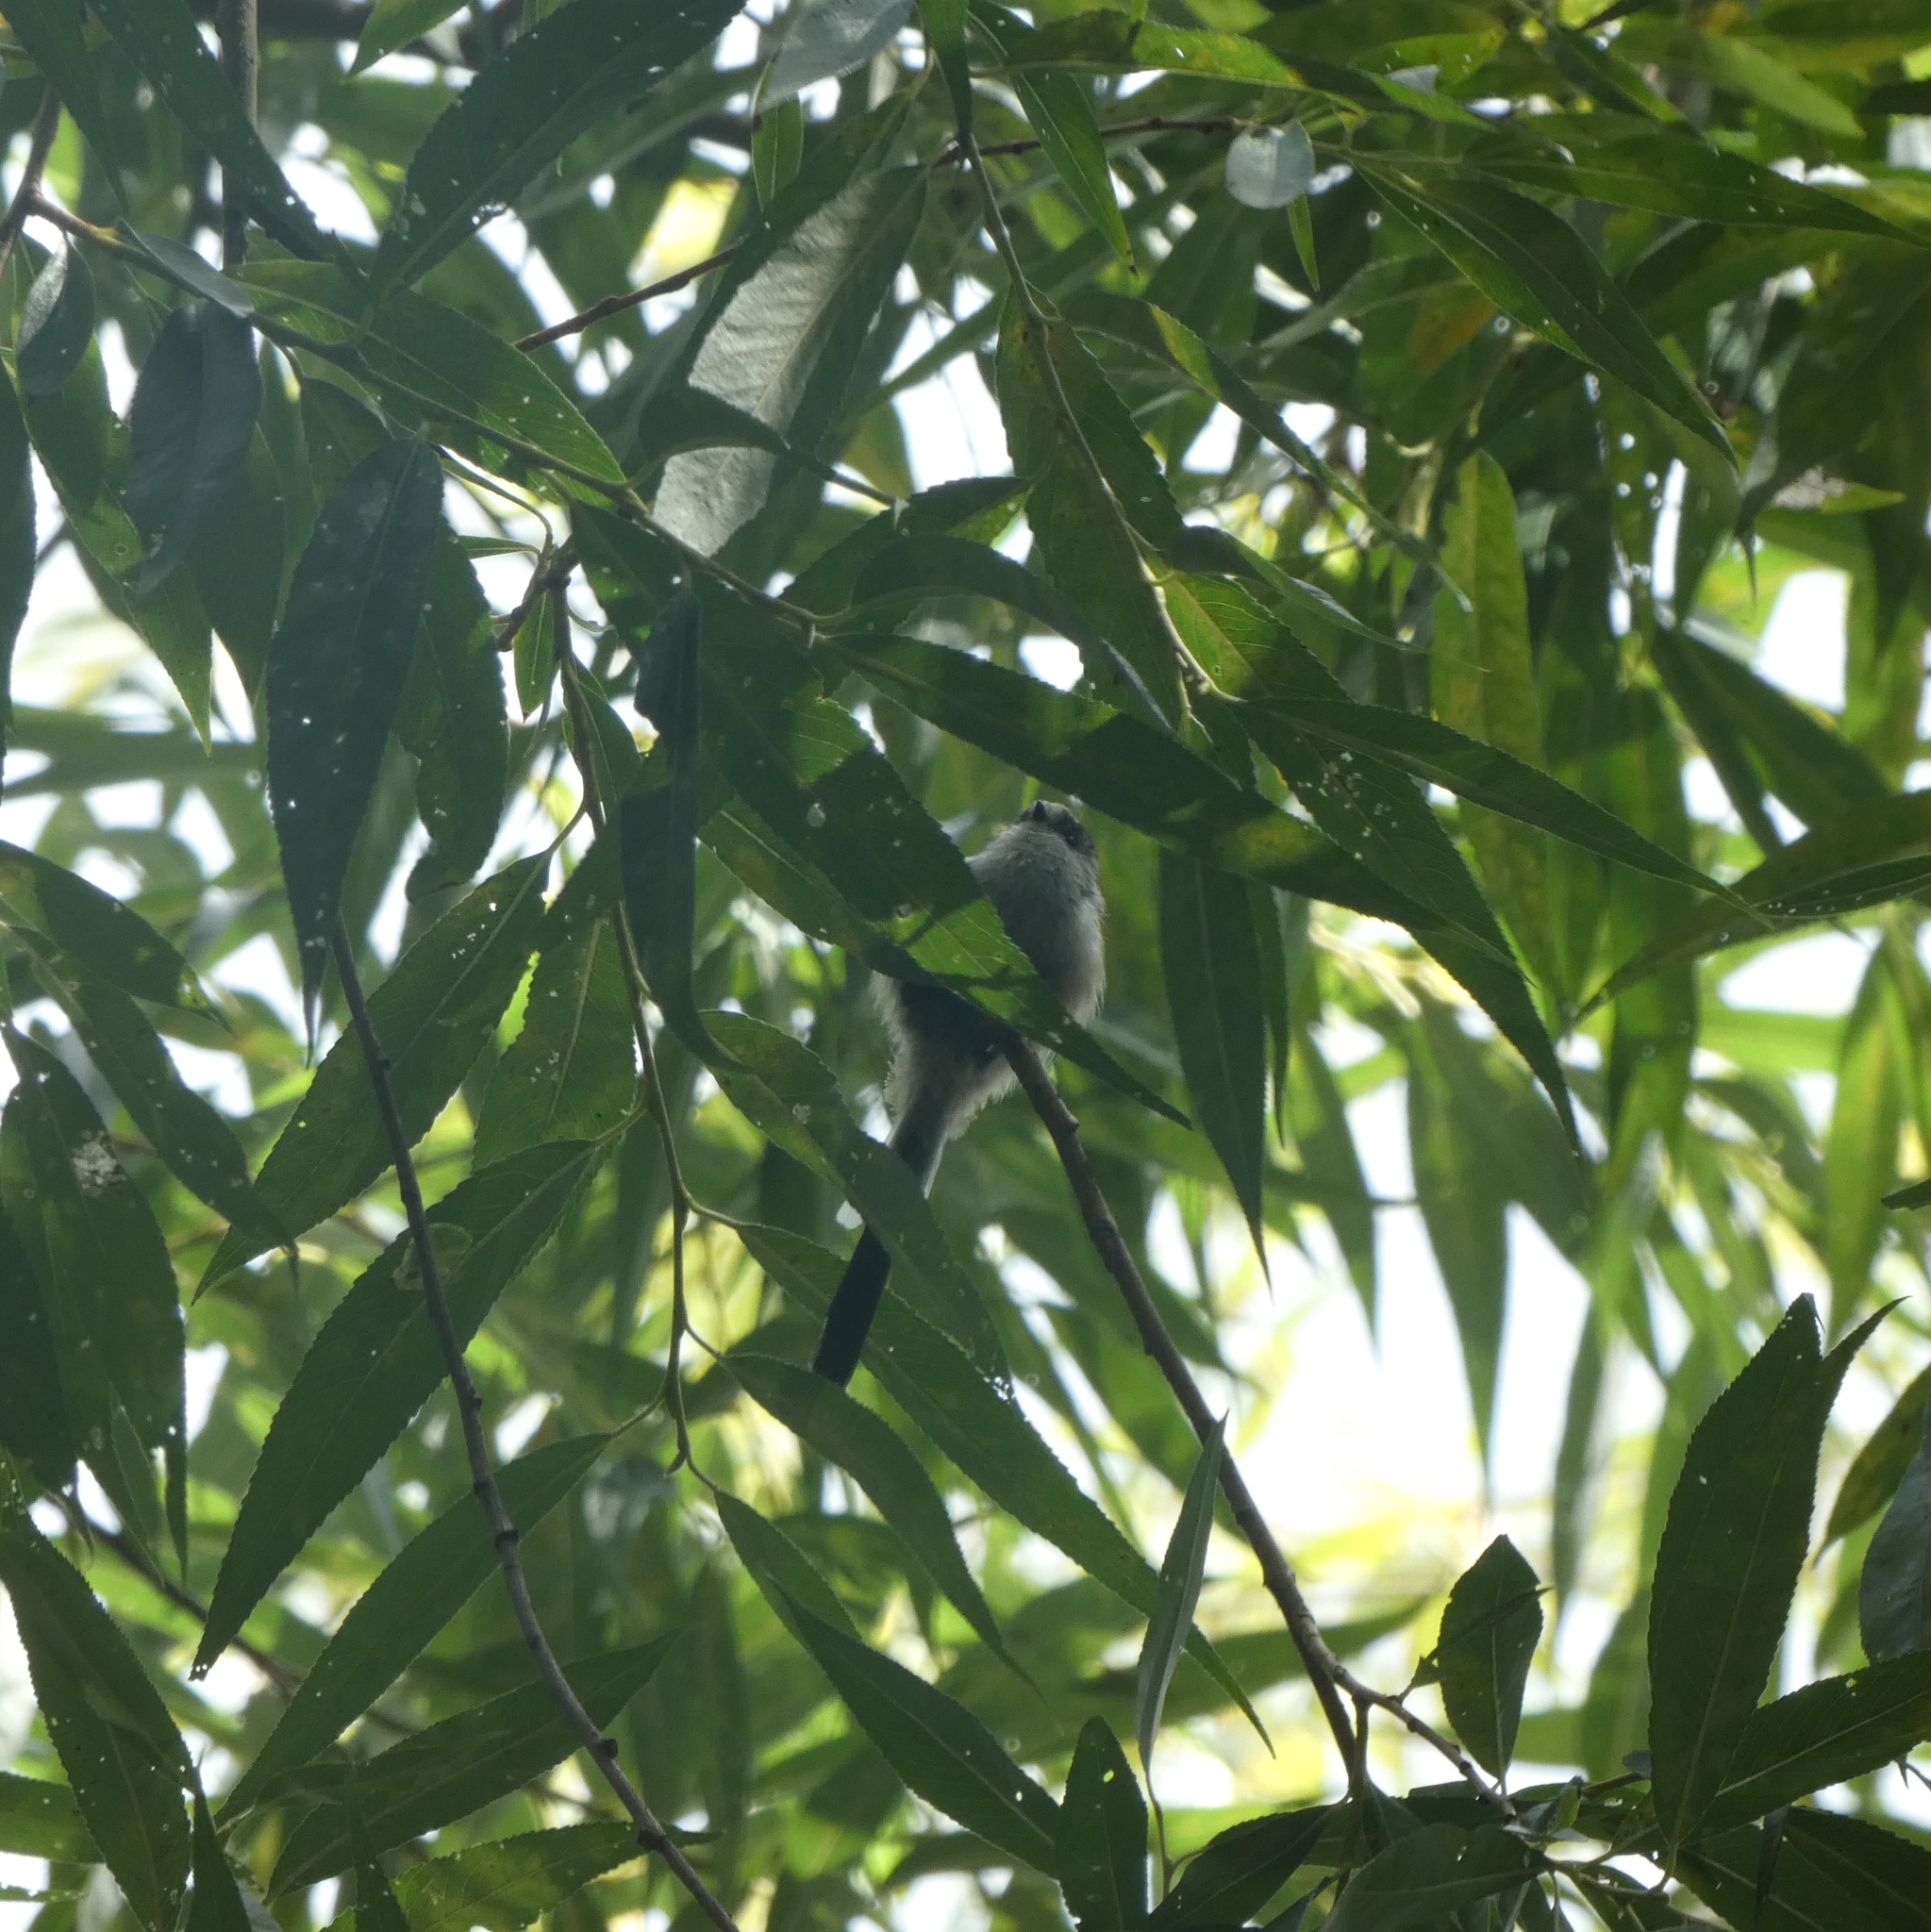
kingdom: Animalia
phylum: Chordata
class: Aves
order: Passeriformes
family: Aegithalidae
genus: Aegithalos
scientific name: Aegithalos caudatus
